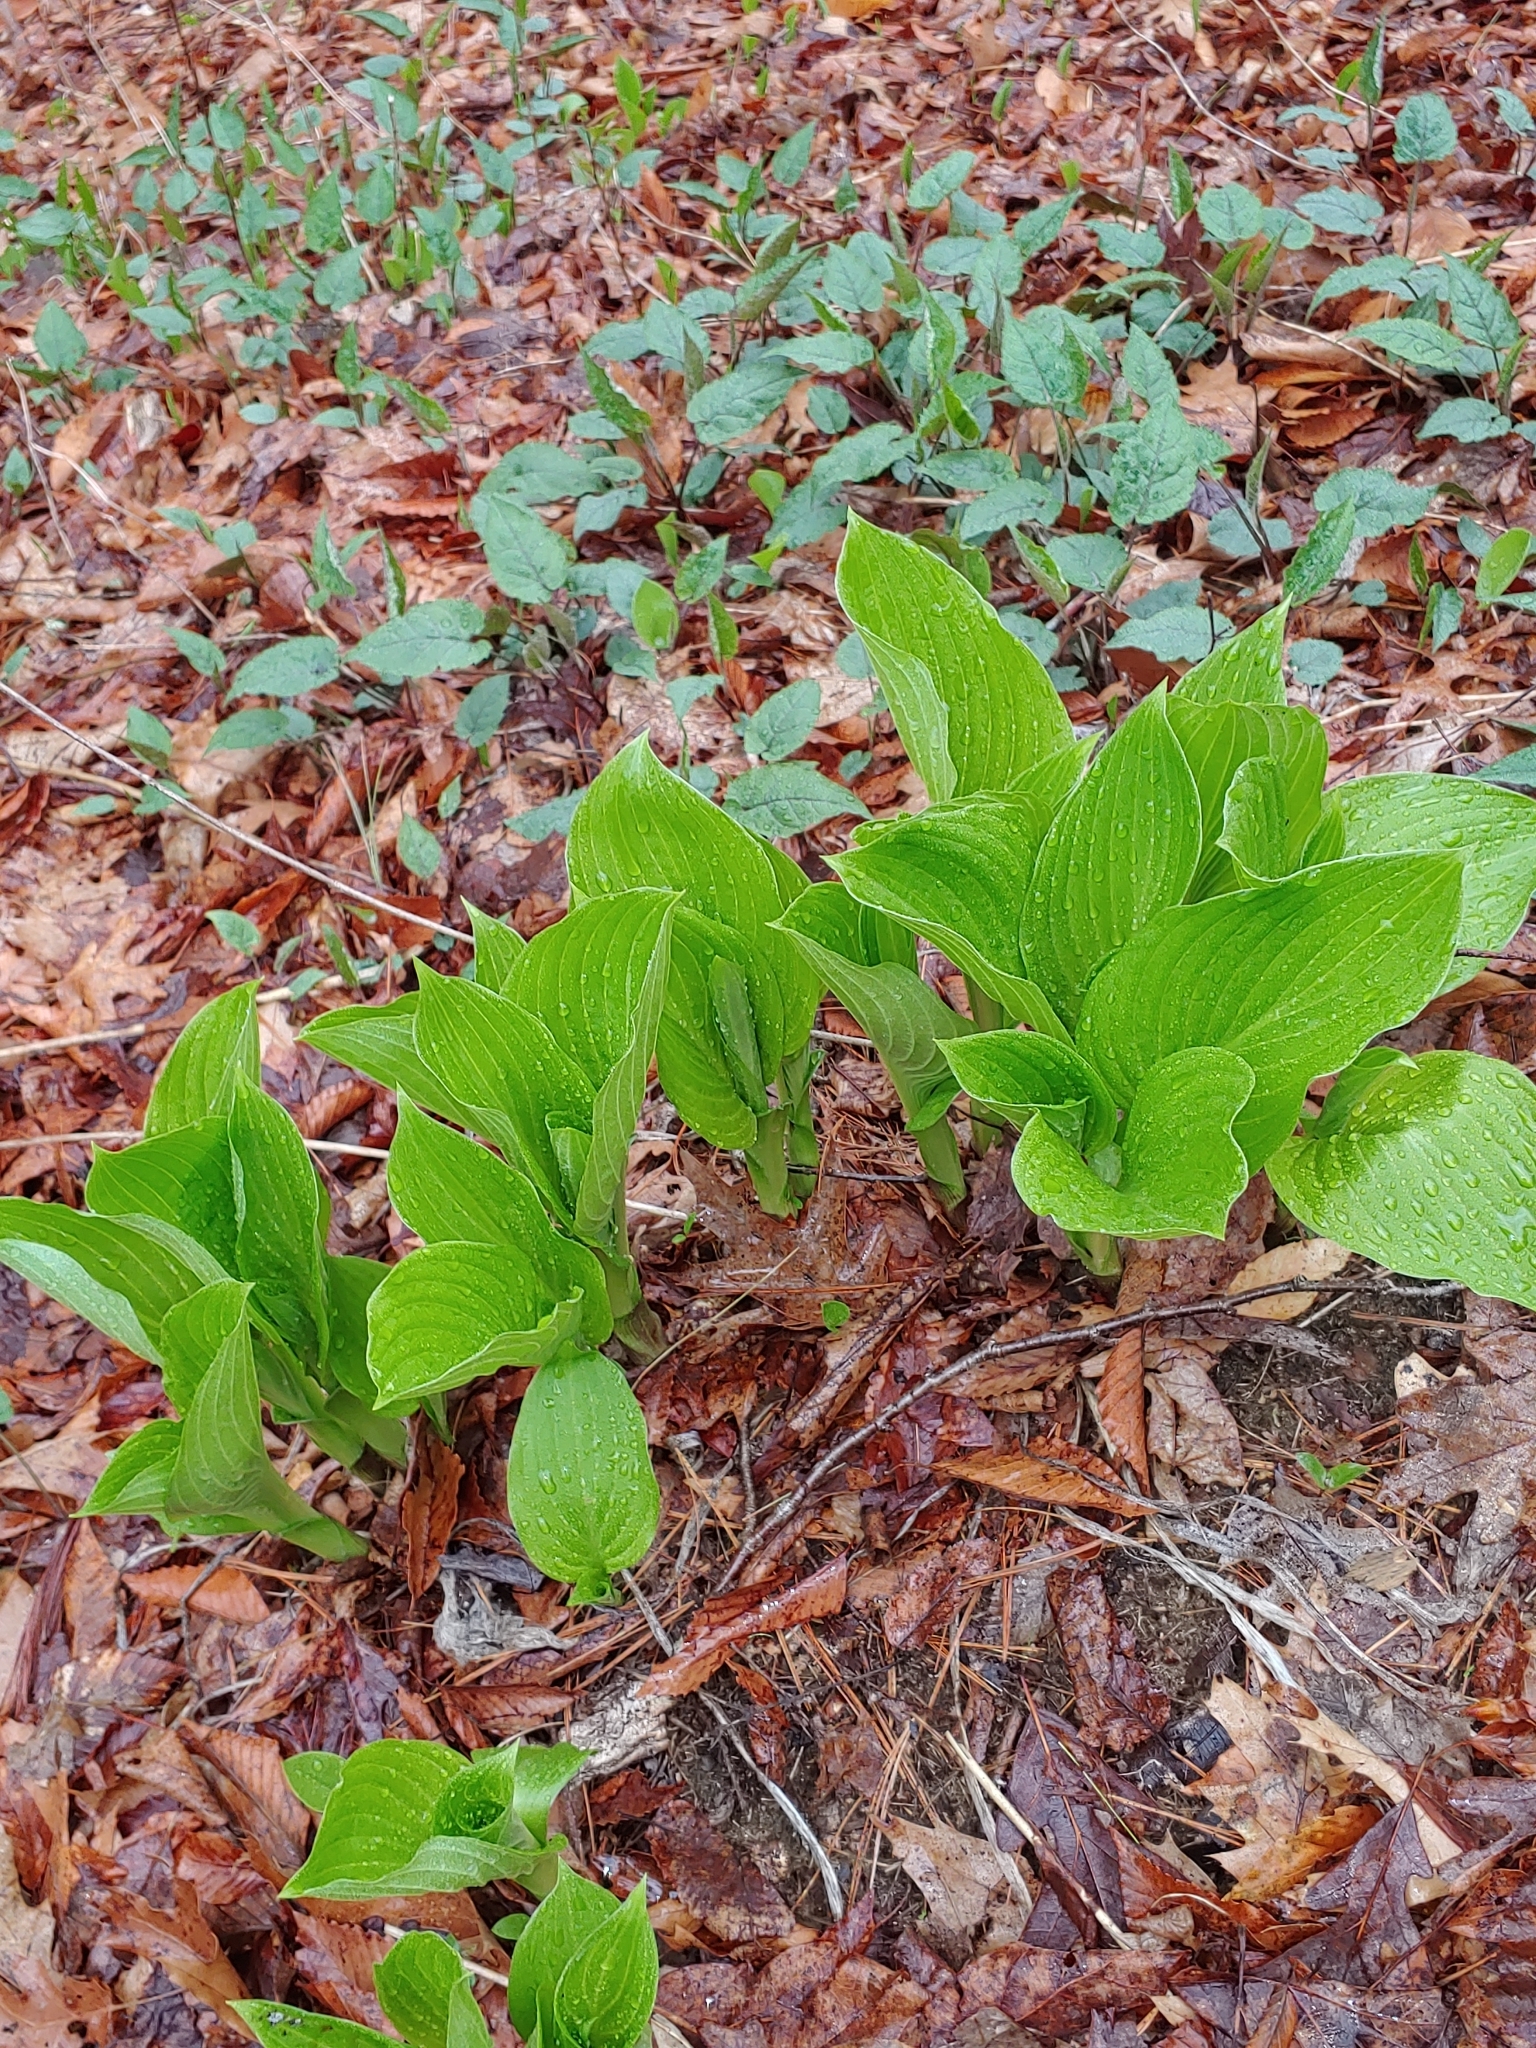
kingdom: Plantae
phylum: Tracheophyta
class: Liliopsida
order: Alismatales
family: Araceae
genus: Symplocarpus
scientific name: Symplocarpus foetidus
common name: Eastern skunk cabbage
